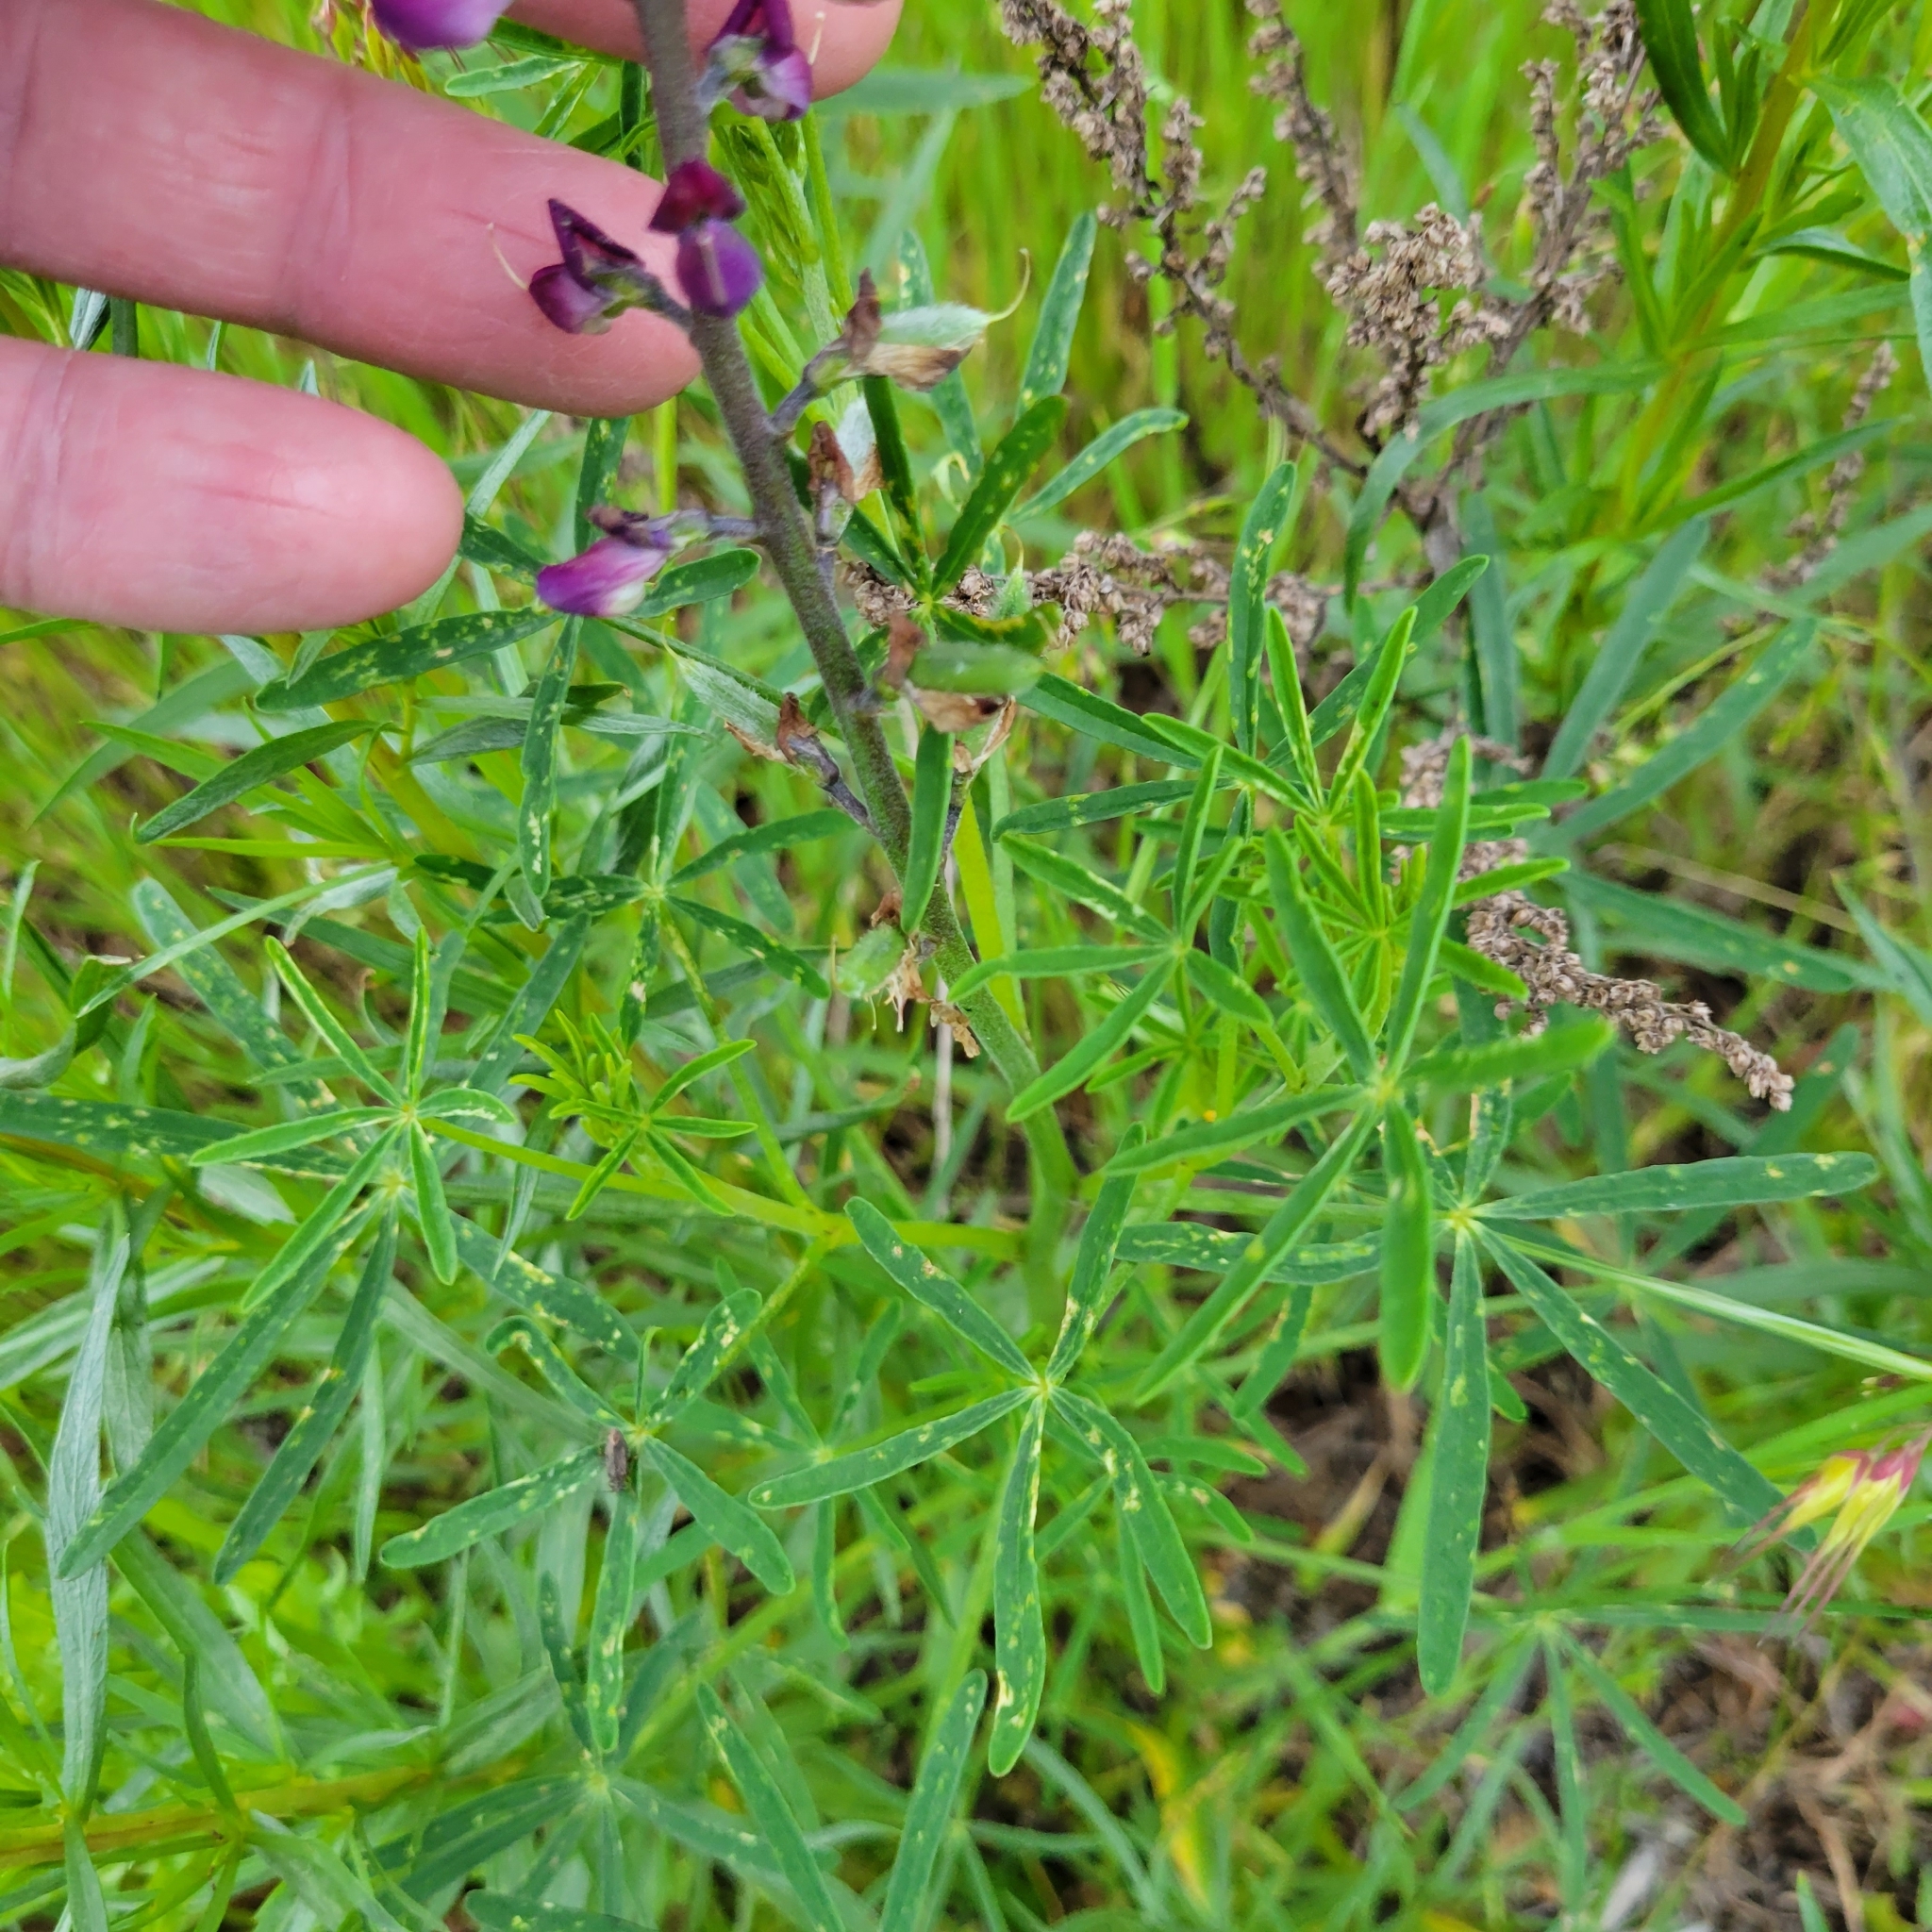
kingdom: Plantae
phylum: Tracheophyta
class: Magnoliopsida
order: Fabales
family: Fabaceae
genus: Lupinus
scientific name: Lupinus truncatus
